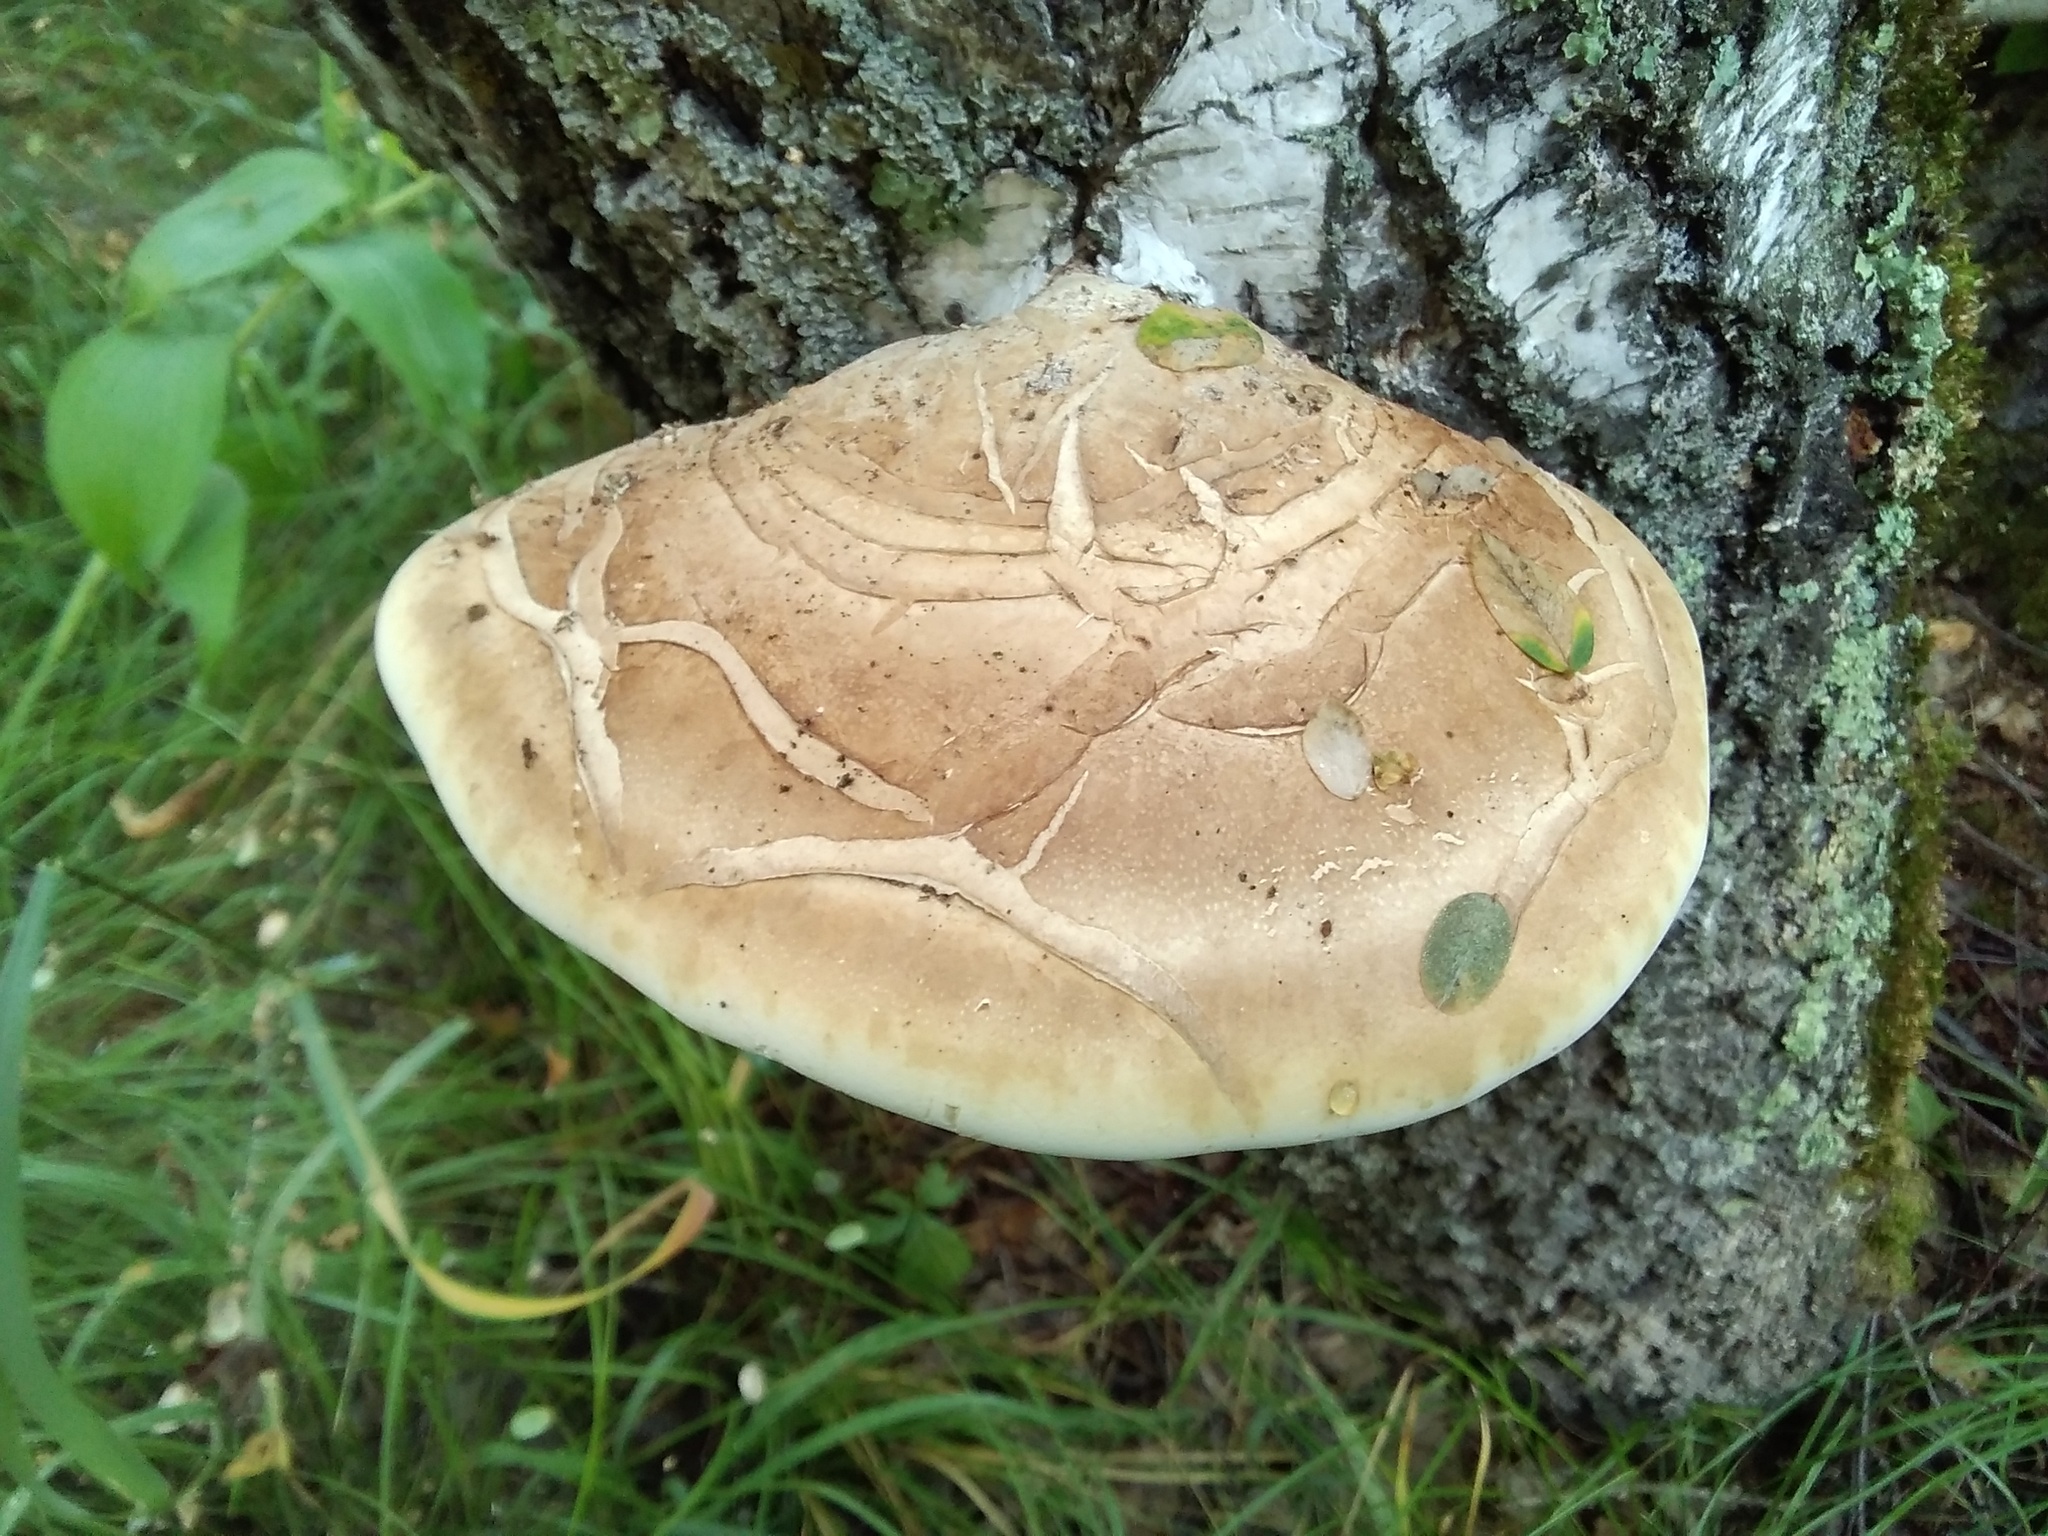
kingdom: Fungi
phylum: Basidiomycota
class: Agaricomycetes
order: Polyporales
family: Fomitopsidaceae
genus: Fomitopsis
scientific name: Fomitopsis betulina
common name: Birch polypore
